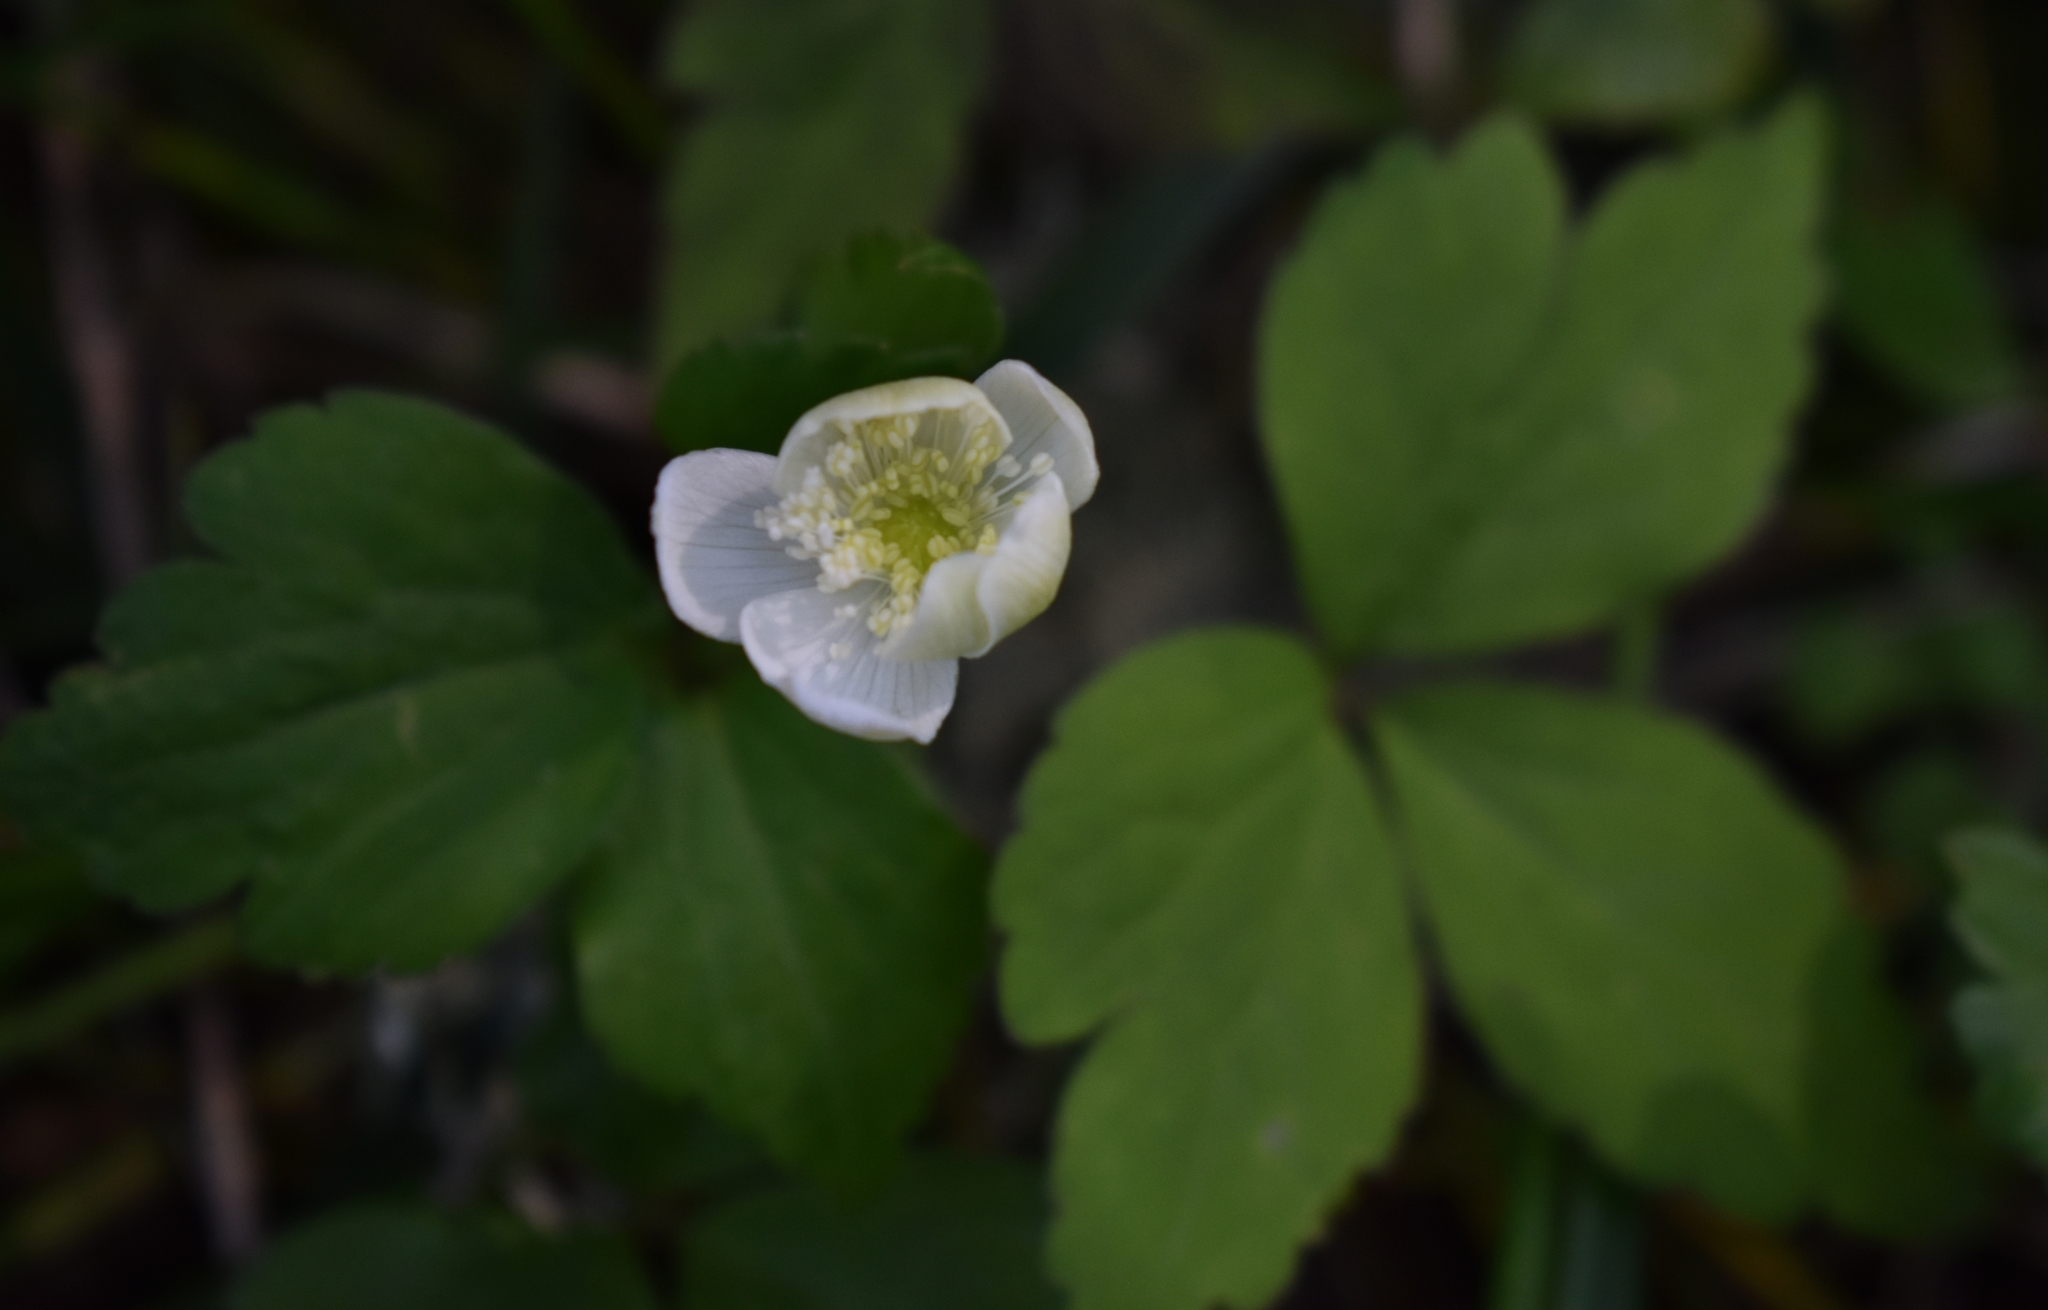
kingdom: Plantae
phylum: Tracheophyta
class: Magnoliopsida
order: Ranunculales
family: Ranunculaceae
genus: Anemonastrum
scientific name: Anemonastrum deltoideum
